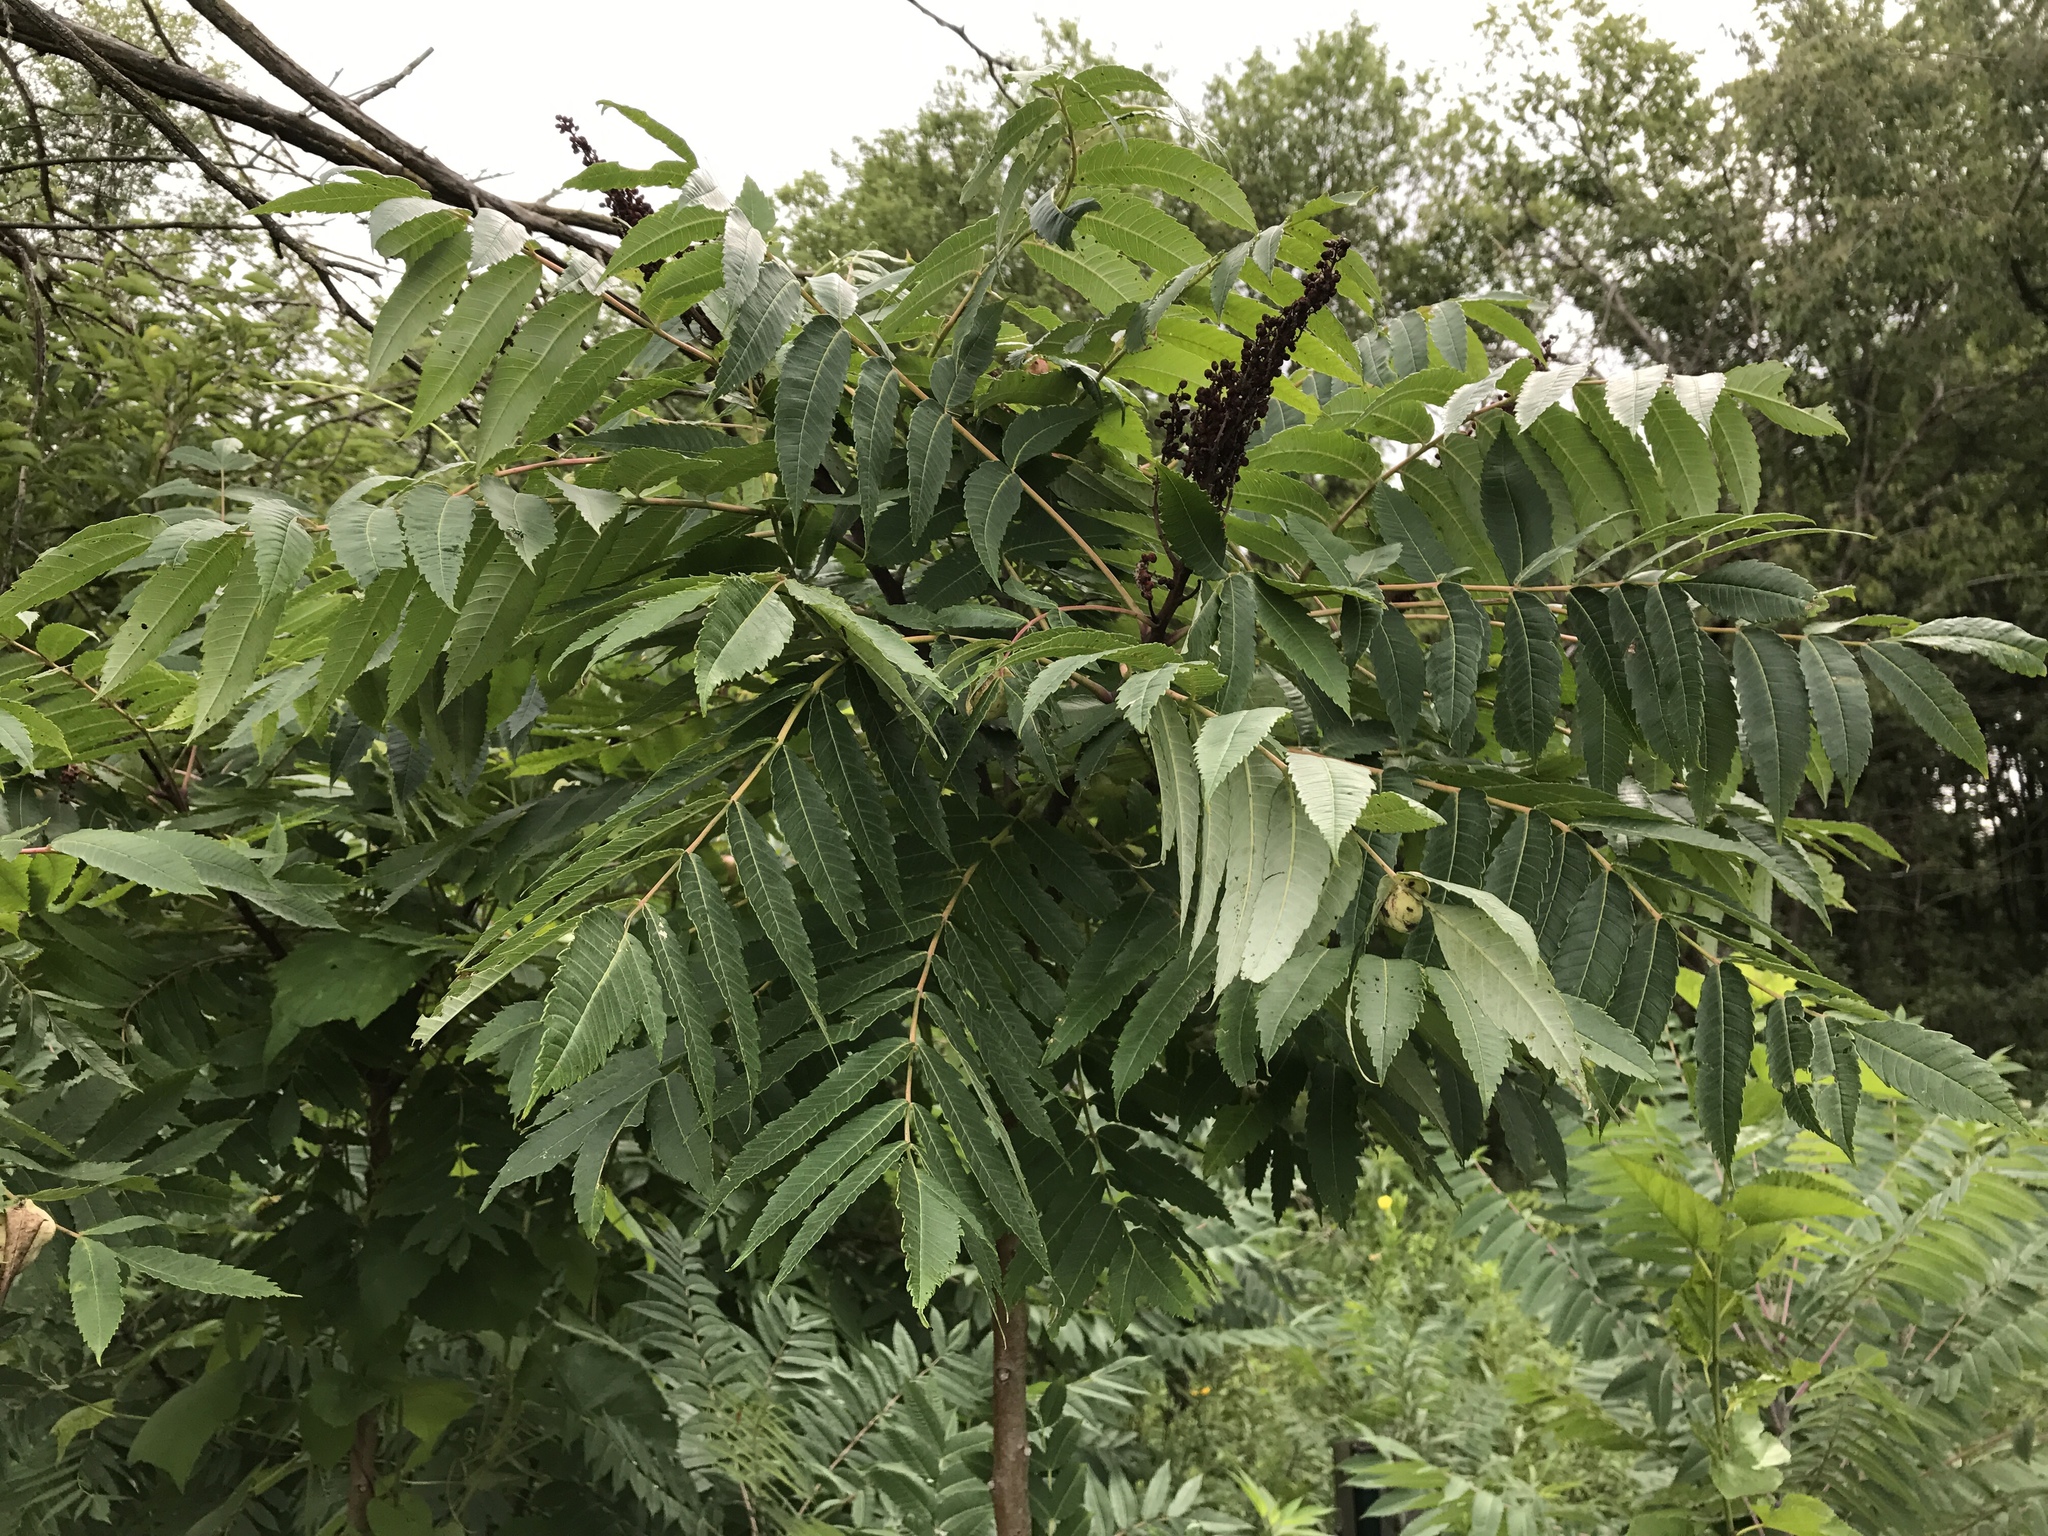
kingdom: Plantae
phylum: Tracheophyta
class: Magnoliopsida
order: Sapindales
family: Anacardiaceae
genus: Rhus
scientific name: Rhus glabra
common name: Scarlet sumac
